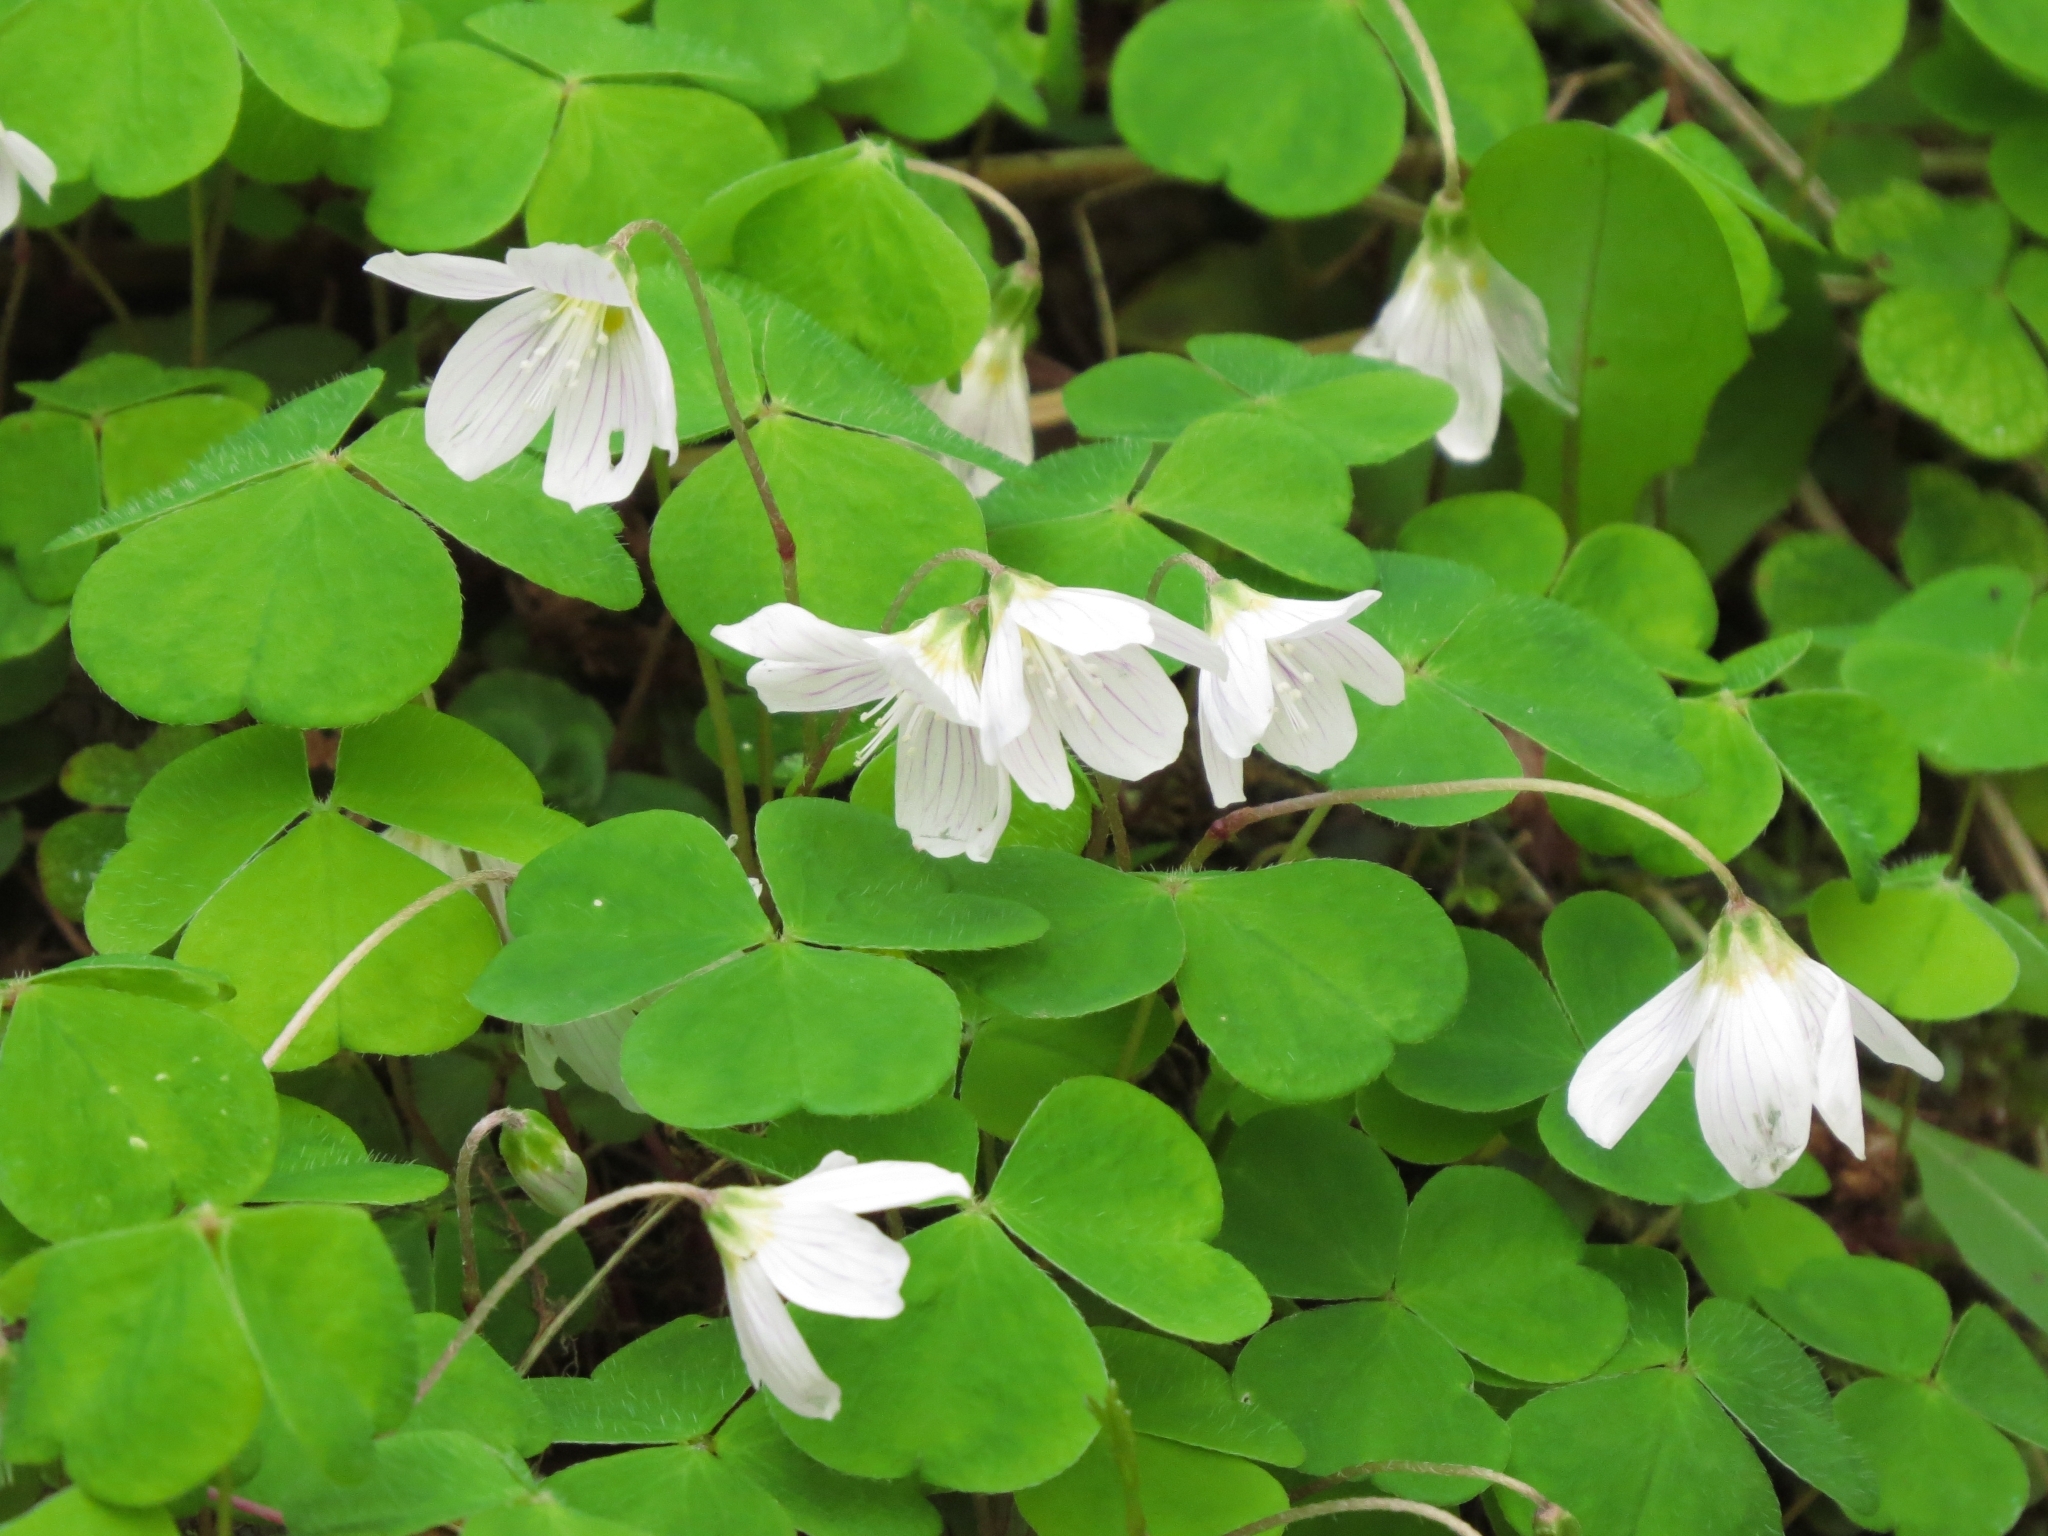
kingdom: Plantae
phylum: Tracheophyta
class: Magnoliopsida
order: Oxalidales
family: Oxalidaceae
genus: Oxalis
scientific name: Oxalis acetosella
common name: Wood-sorrel
